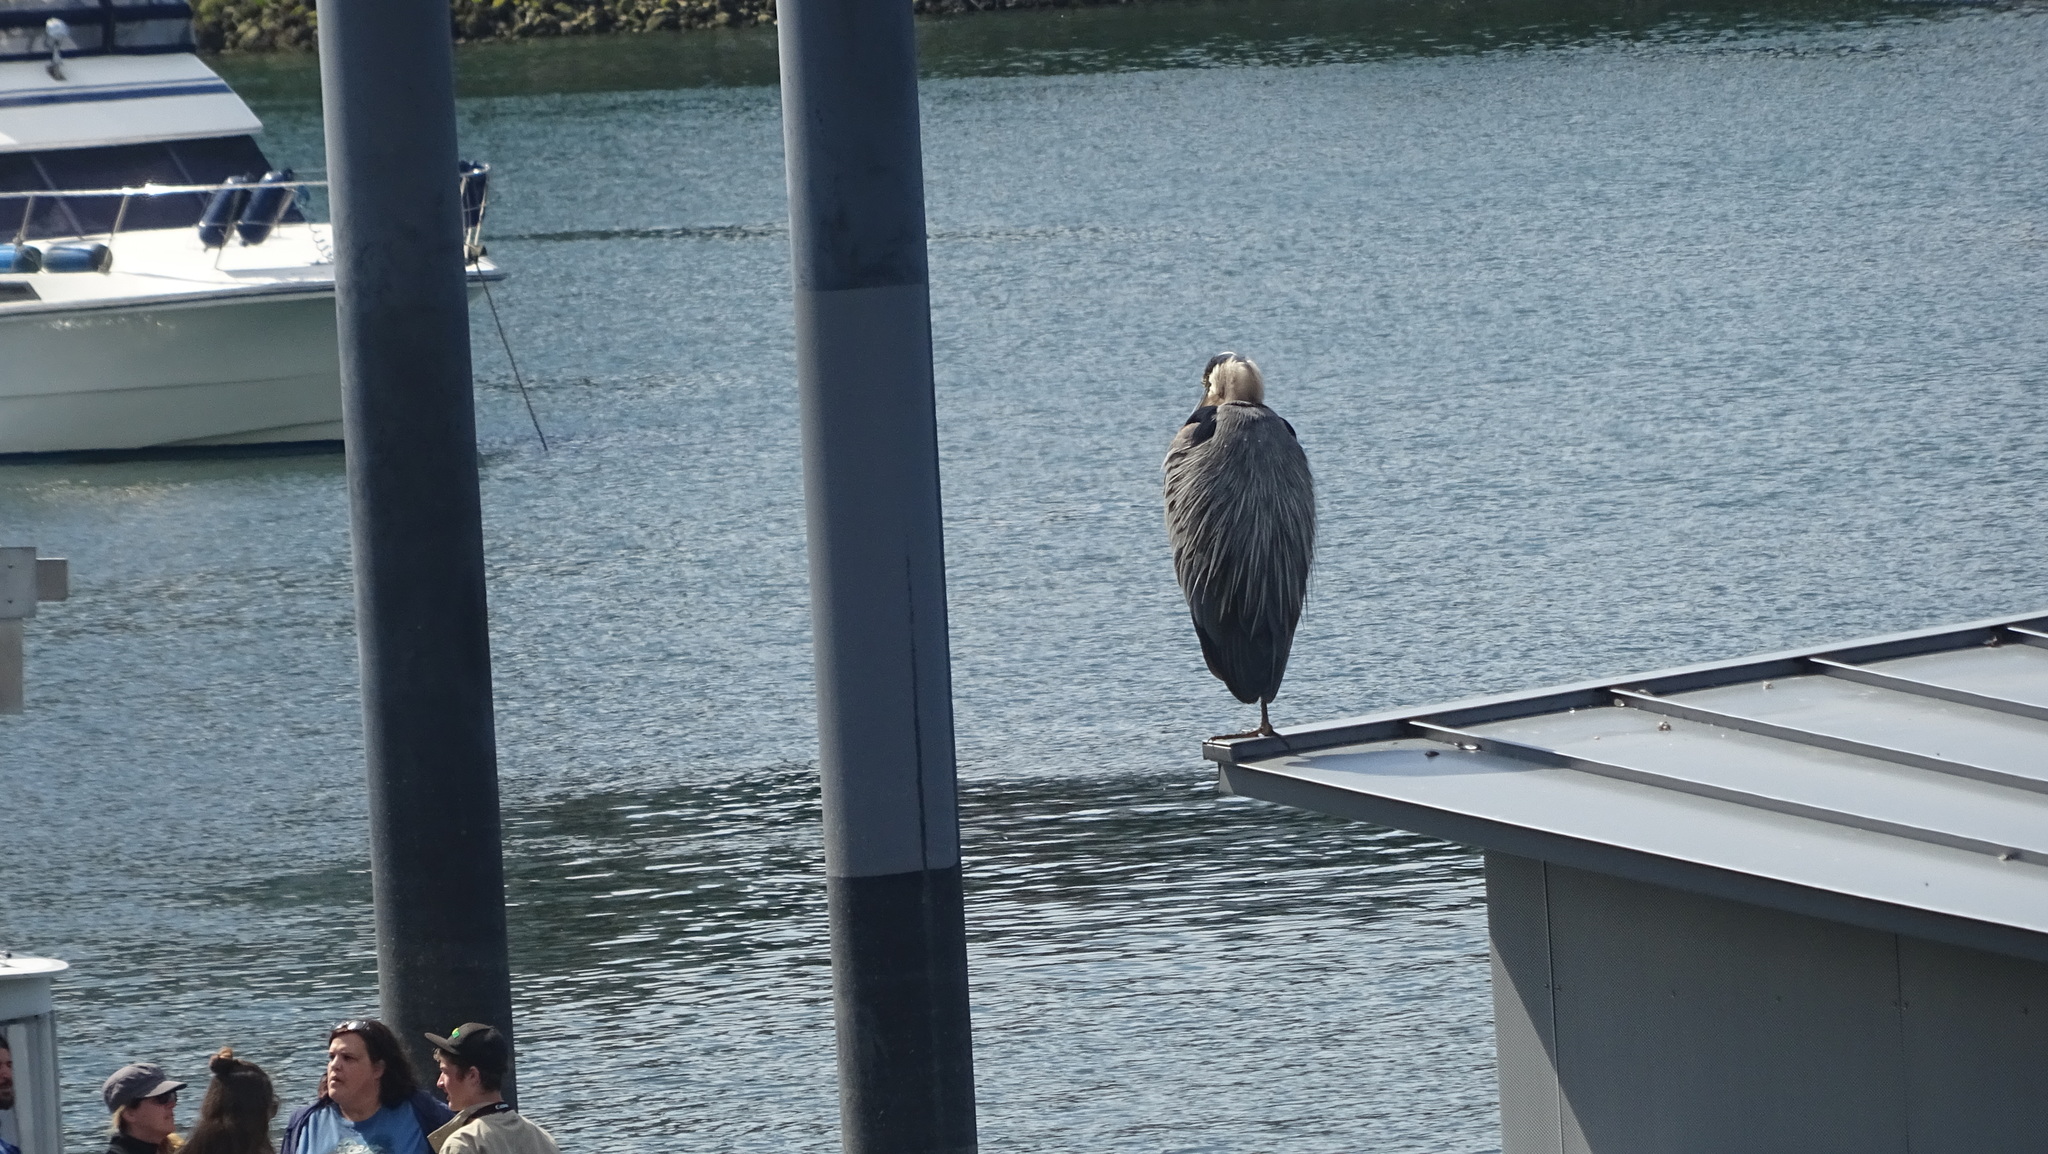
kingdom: Animalia
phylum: Chordata
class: Aves
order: Pelecaniformes
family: Ardeidae
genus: Ardea
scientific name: Ardea herodias
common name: Great blue heron
